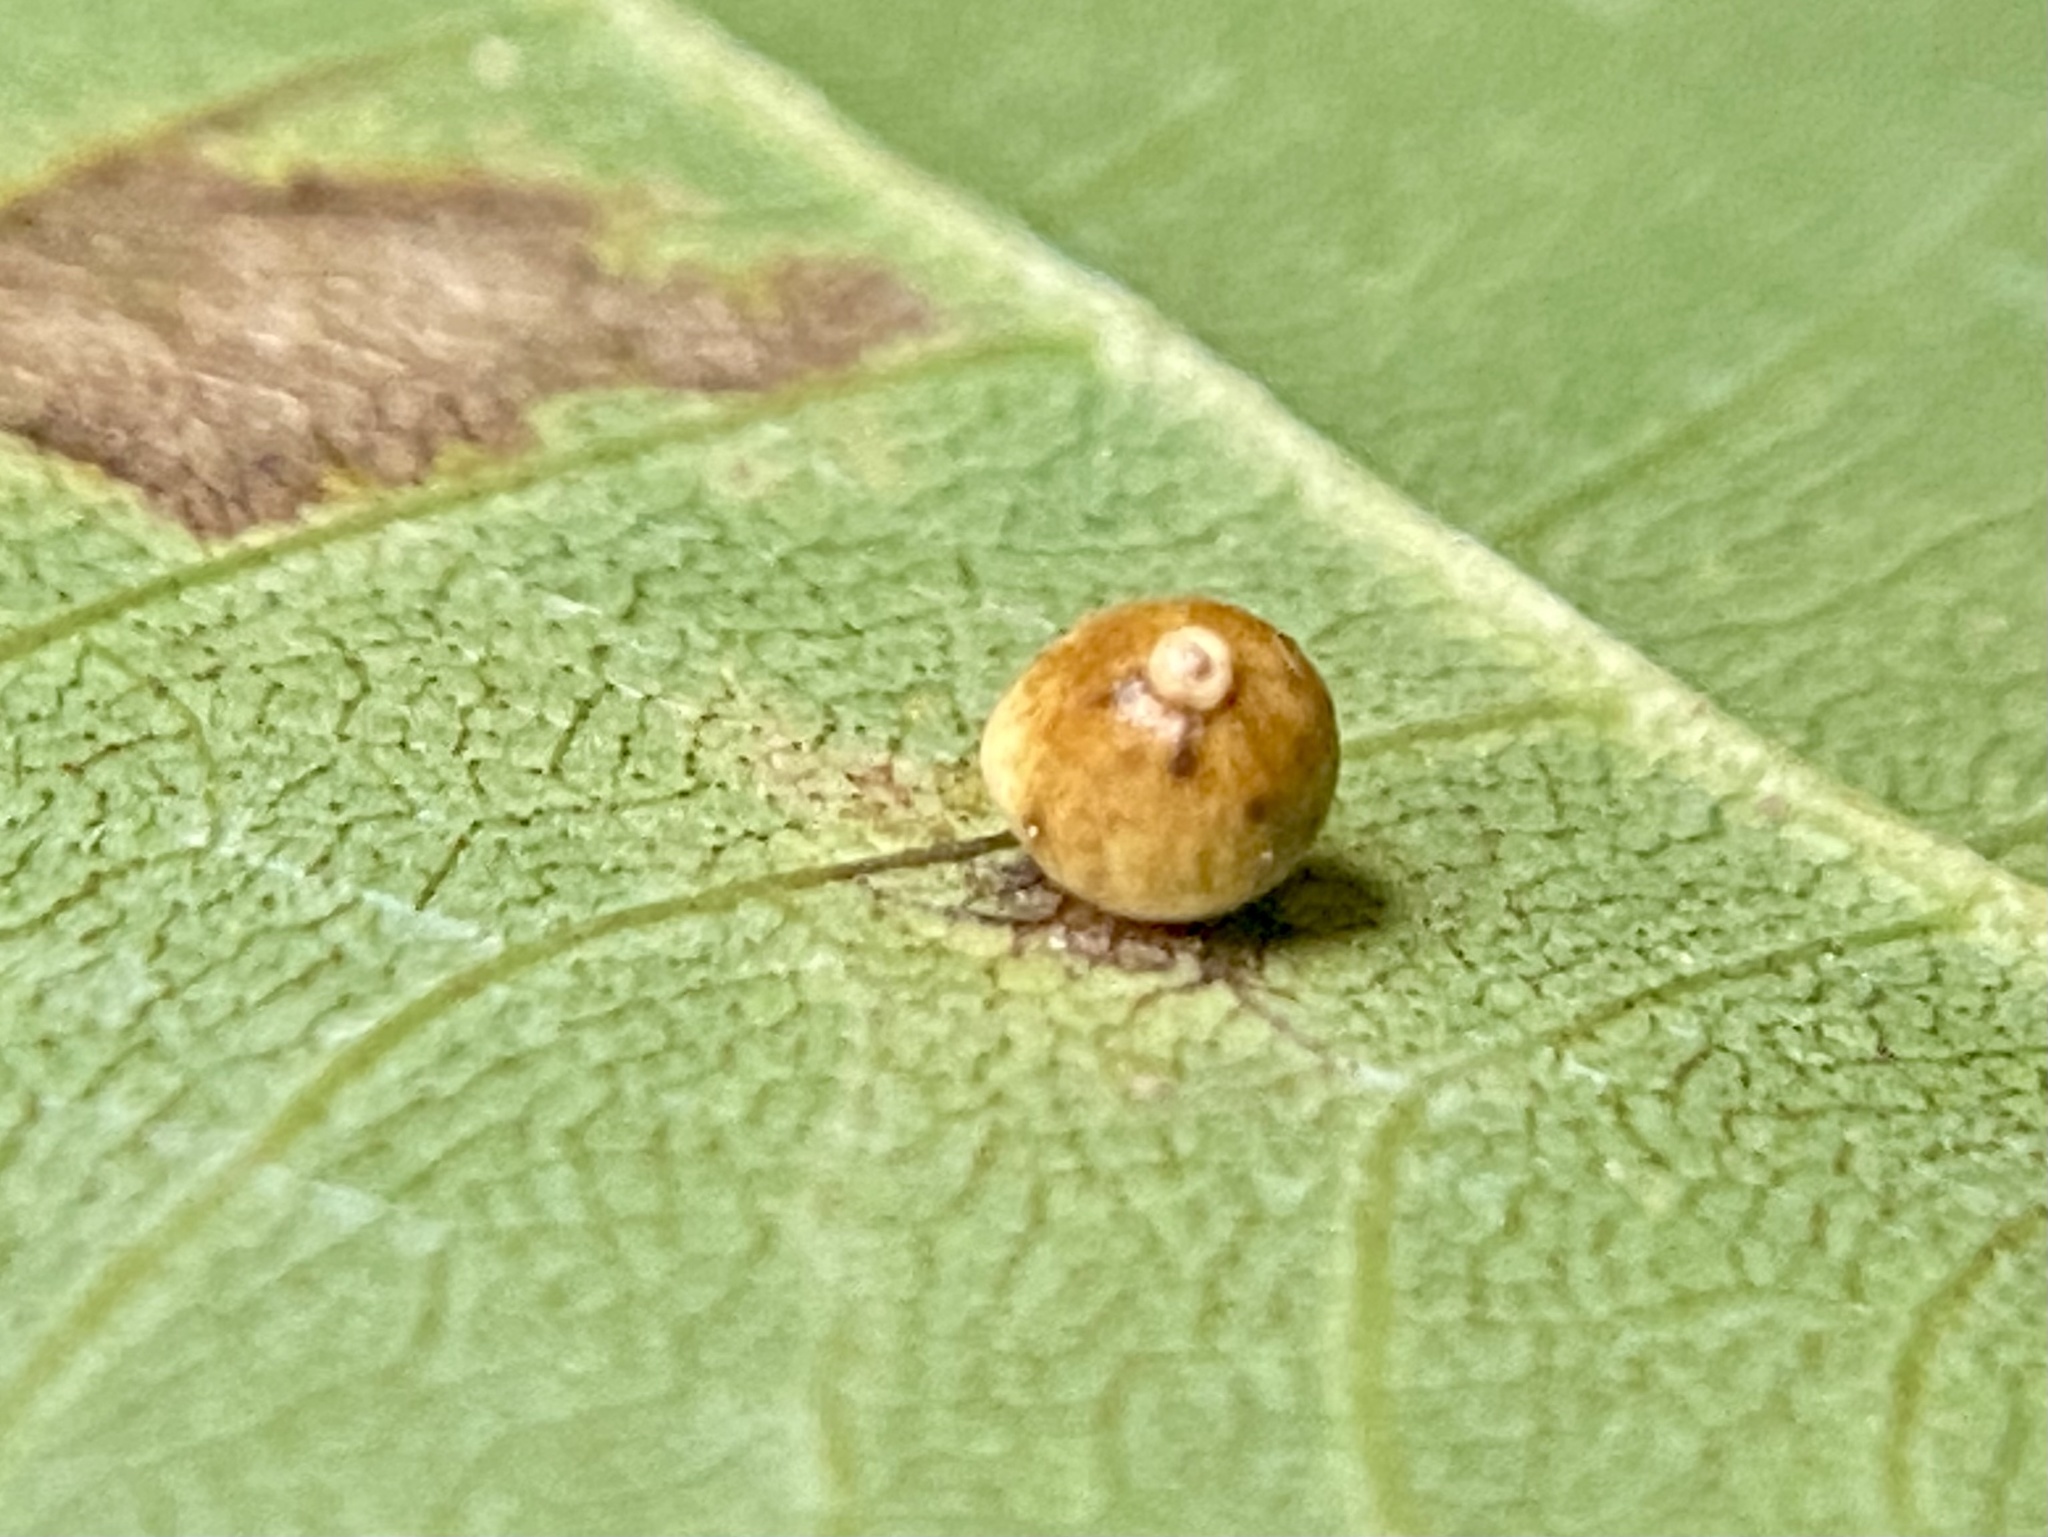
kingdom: Animalia
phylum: Arthropoda
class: Insecta
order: Diptera
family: Cecidomyiidae
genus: Caryomyia
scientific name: Caryomyia leviglobus
